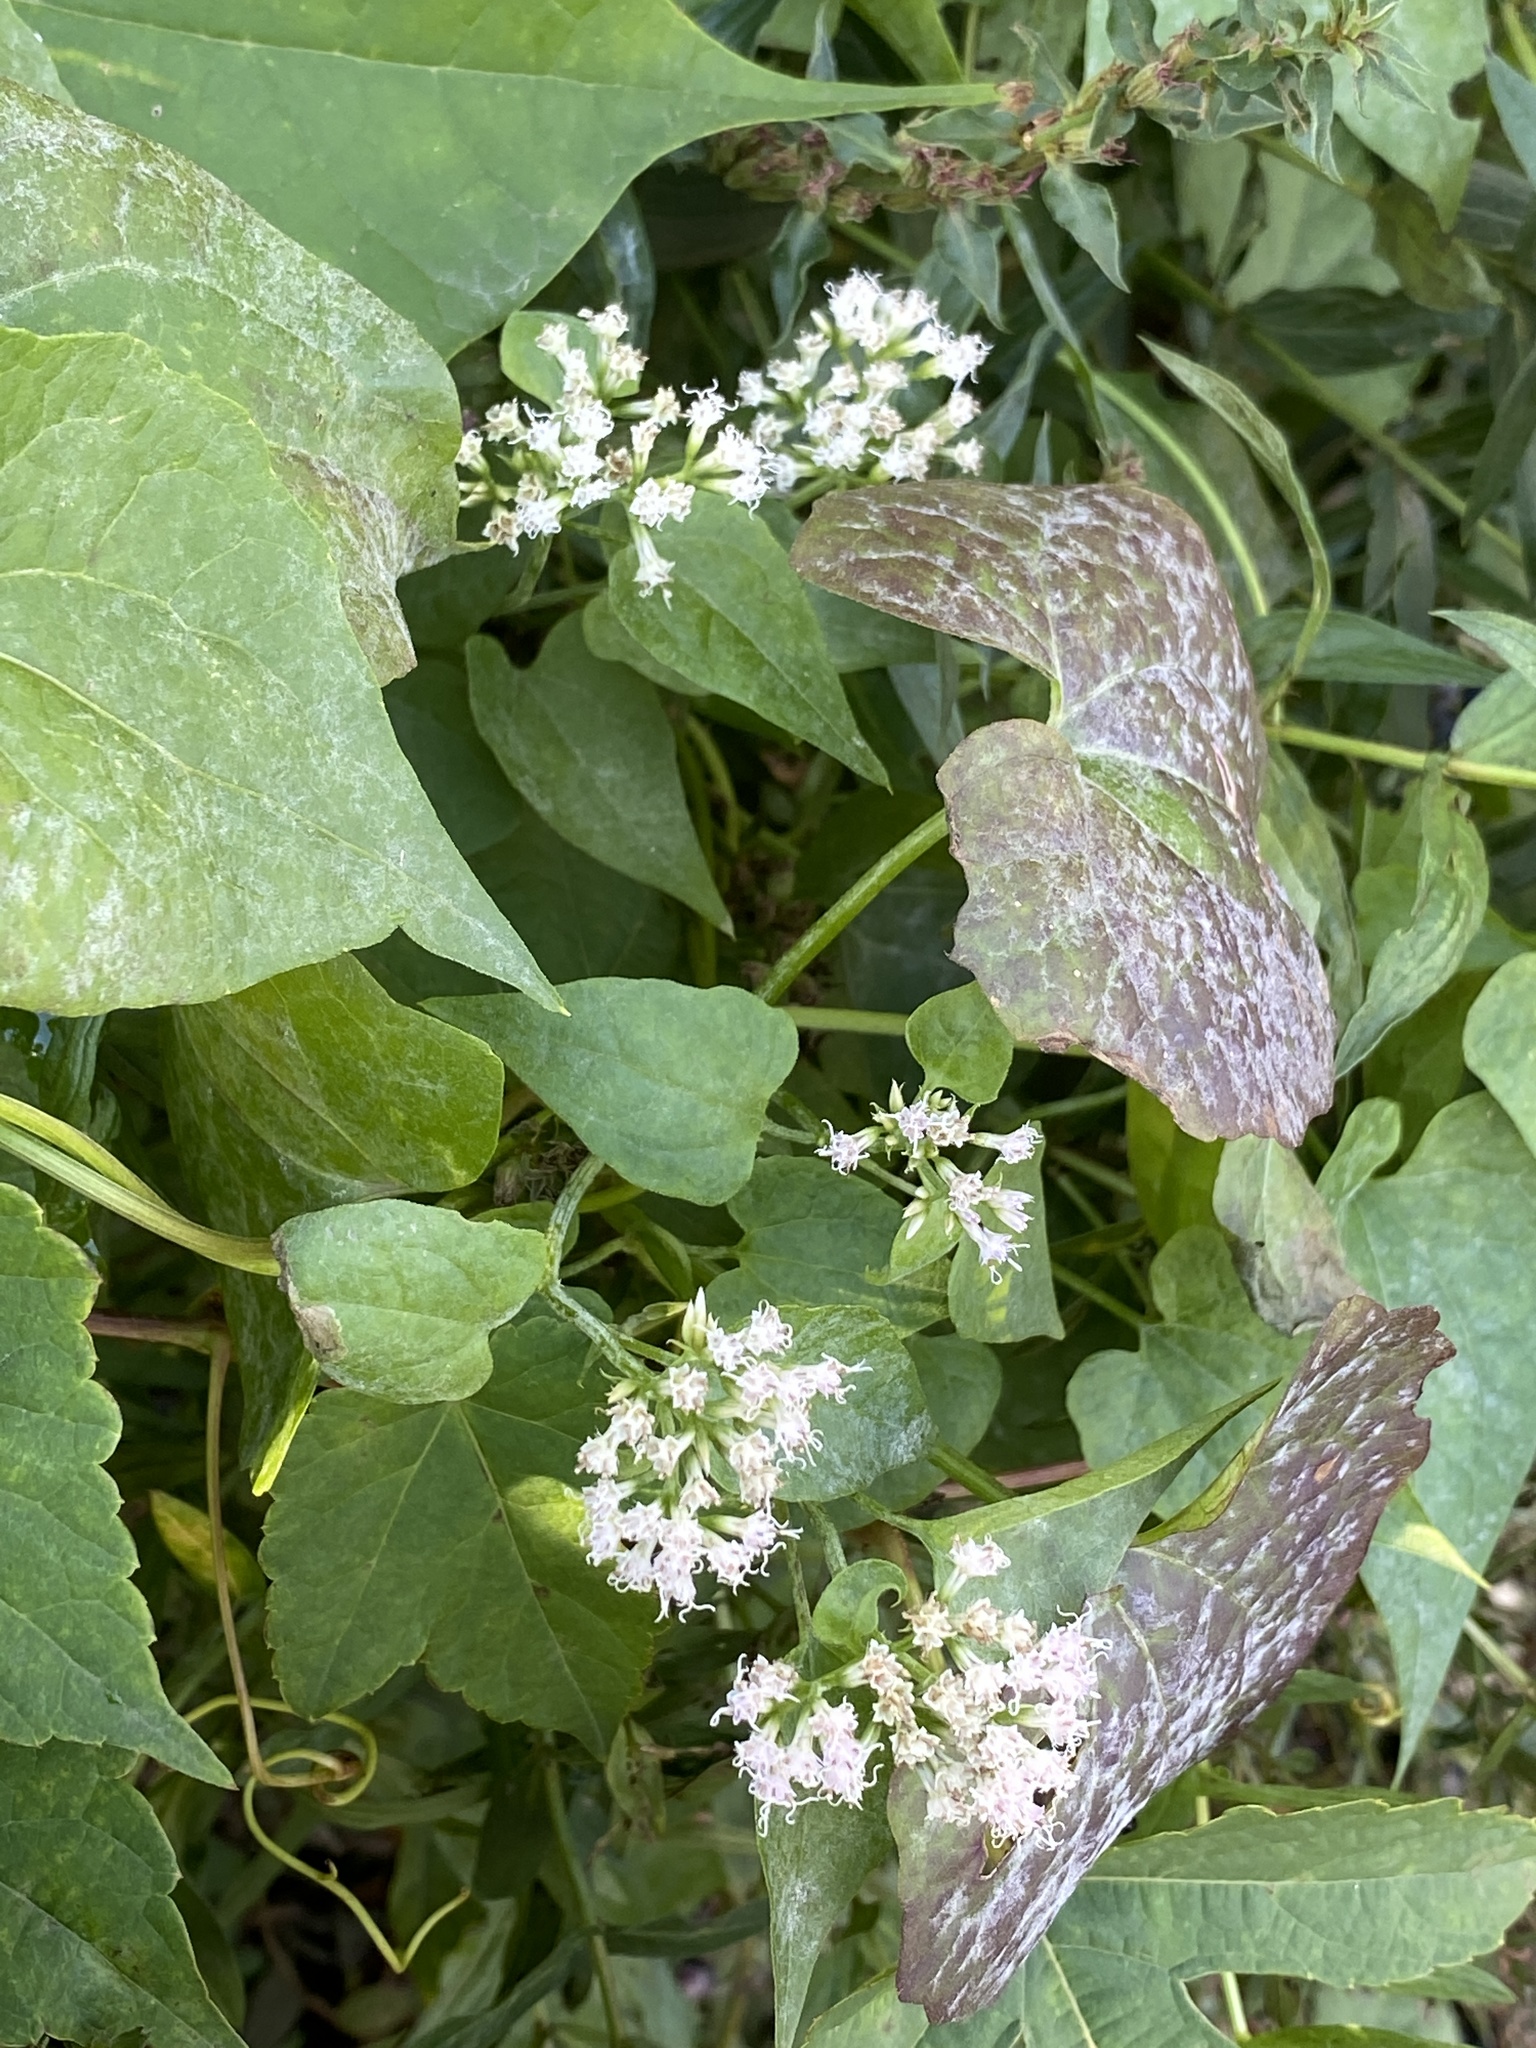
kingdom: Plantae
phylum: Tracheophyta
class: Magnoliopsida
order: Asterales
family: Asteraceae
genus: Mikania
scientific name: Mikania scandens
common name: Climbing hempvine
